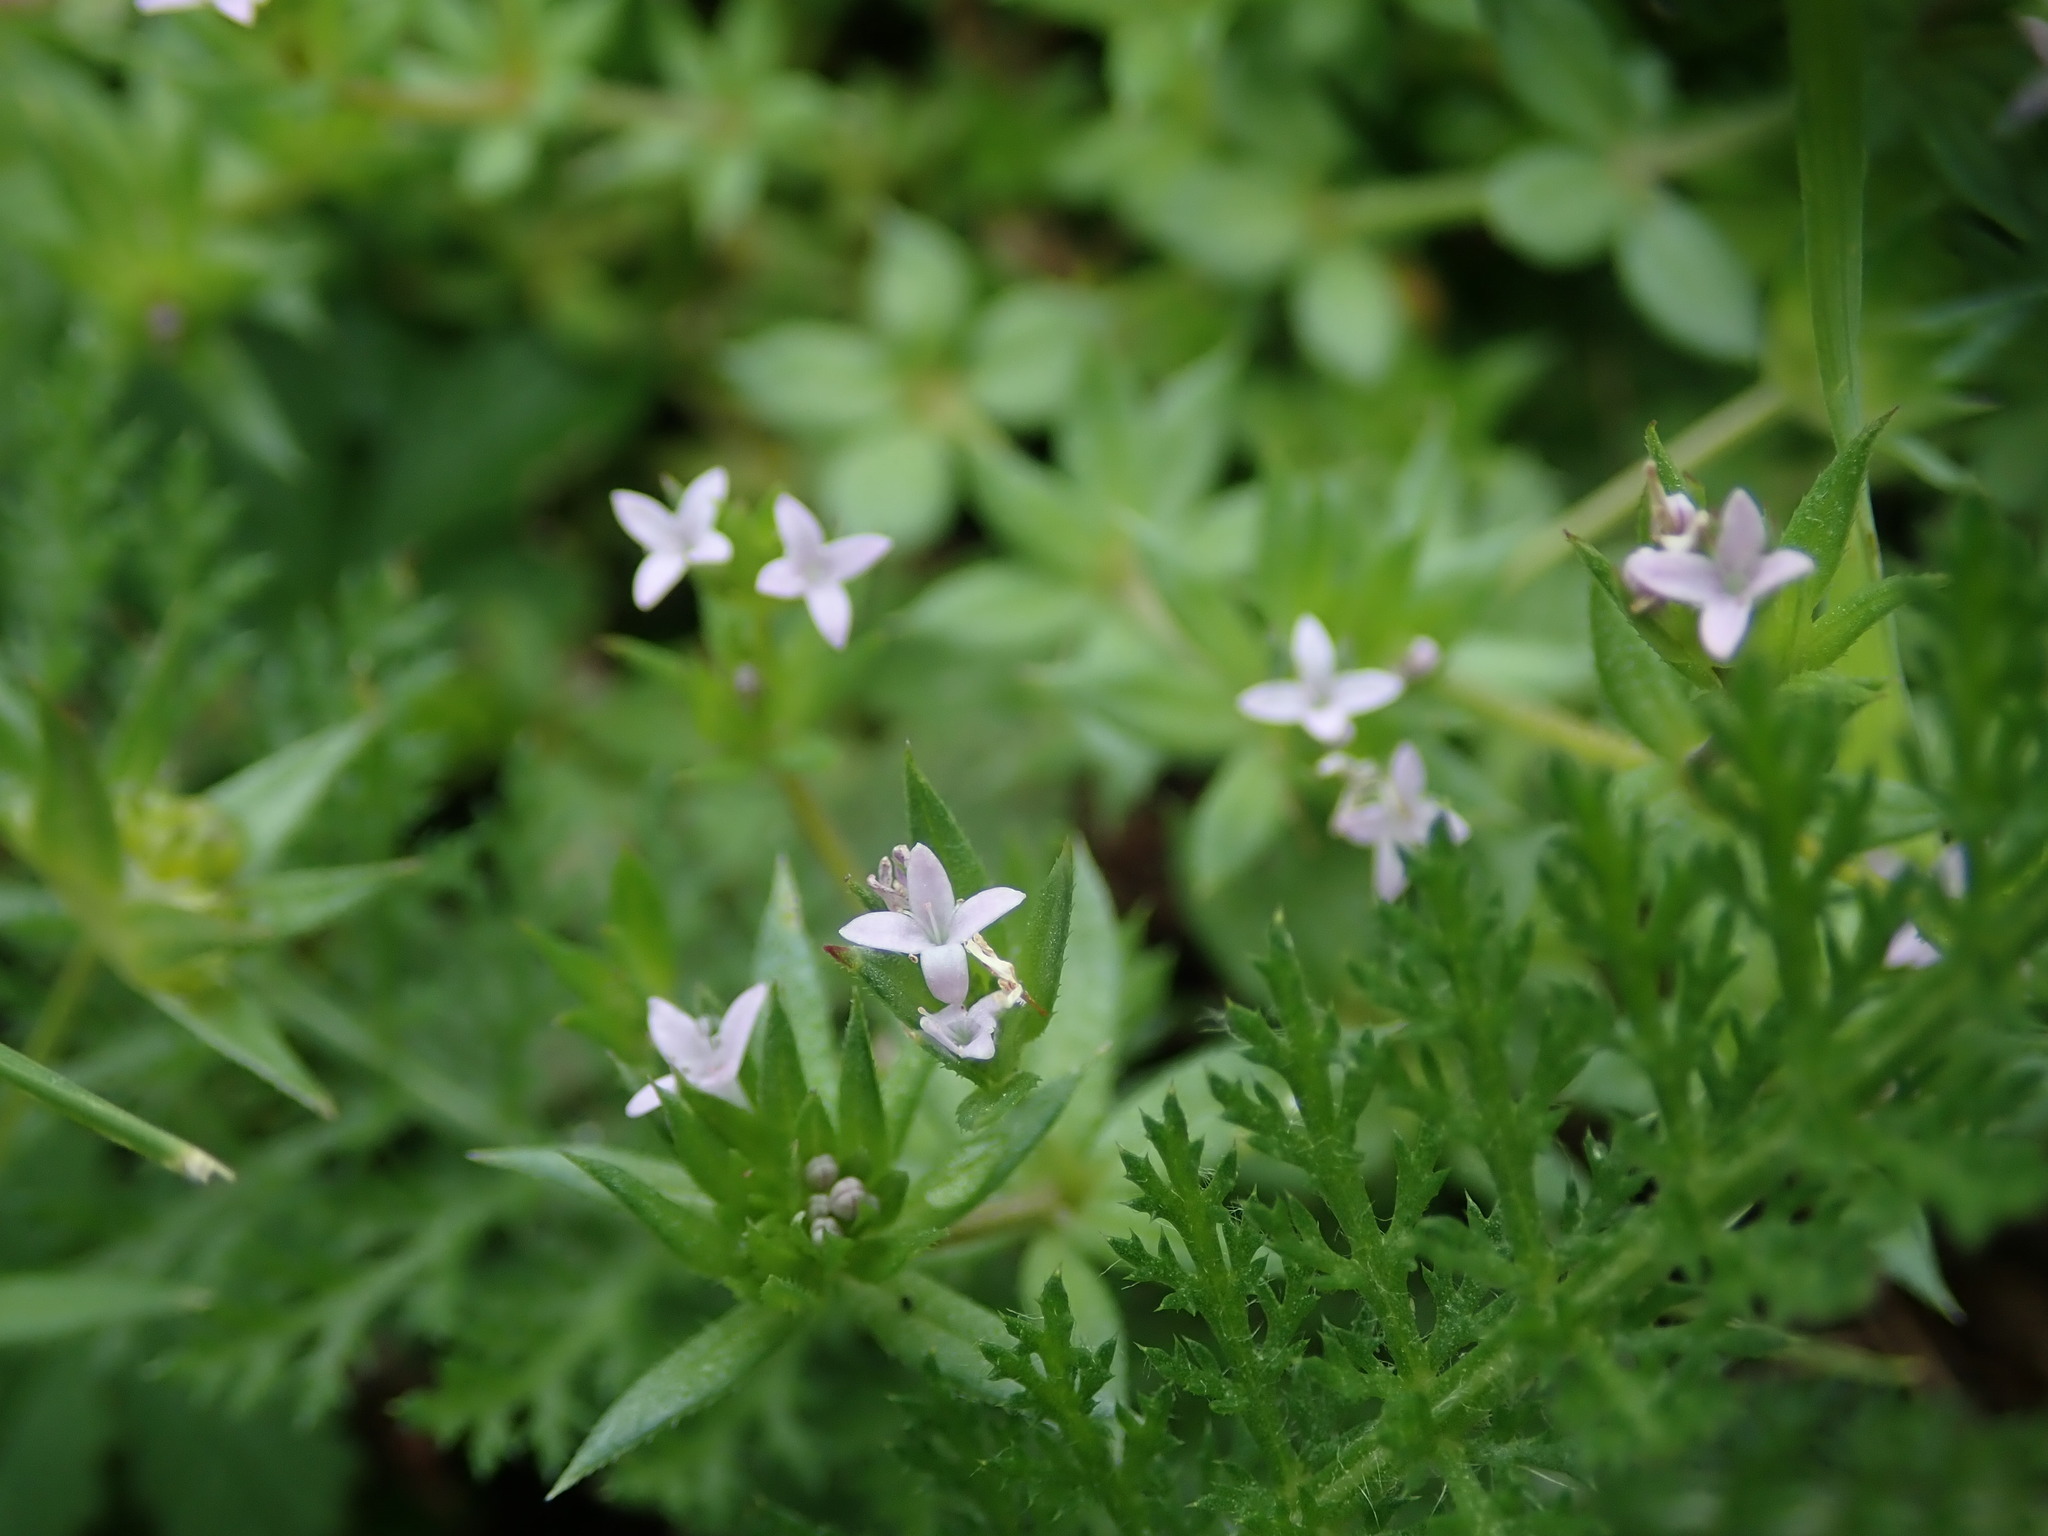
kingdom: Plantae
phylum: Tracheophyta
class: Magnoliopsida
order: Gentianales
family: Rubiaceae
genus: Sherardia
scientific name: Sherardia arvensis
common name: Field madder
